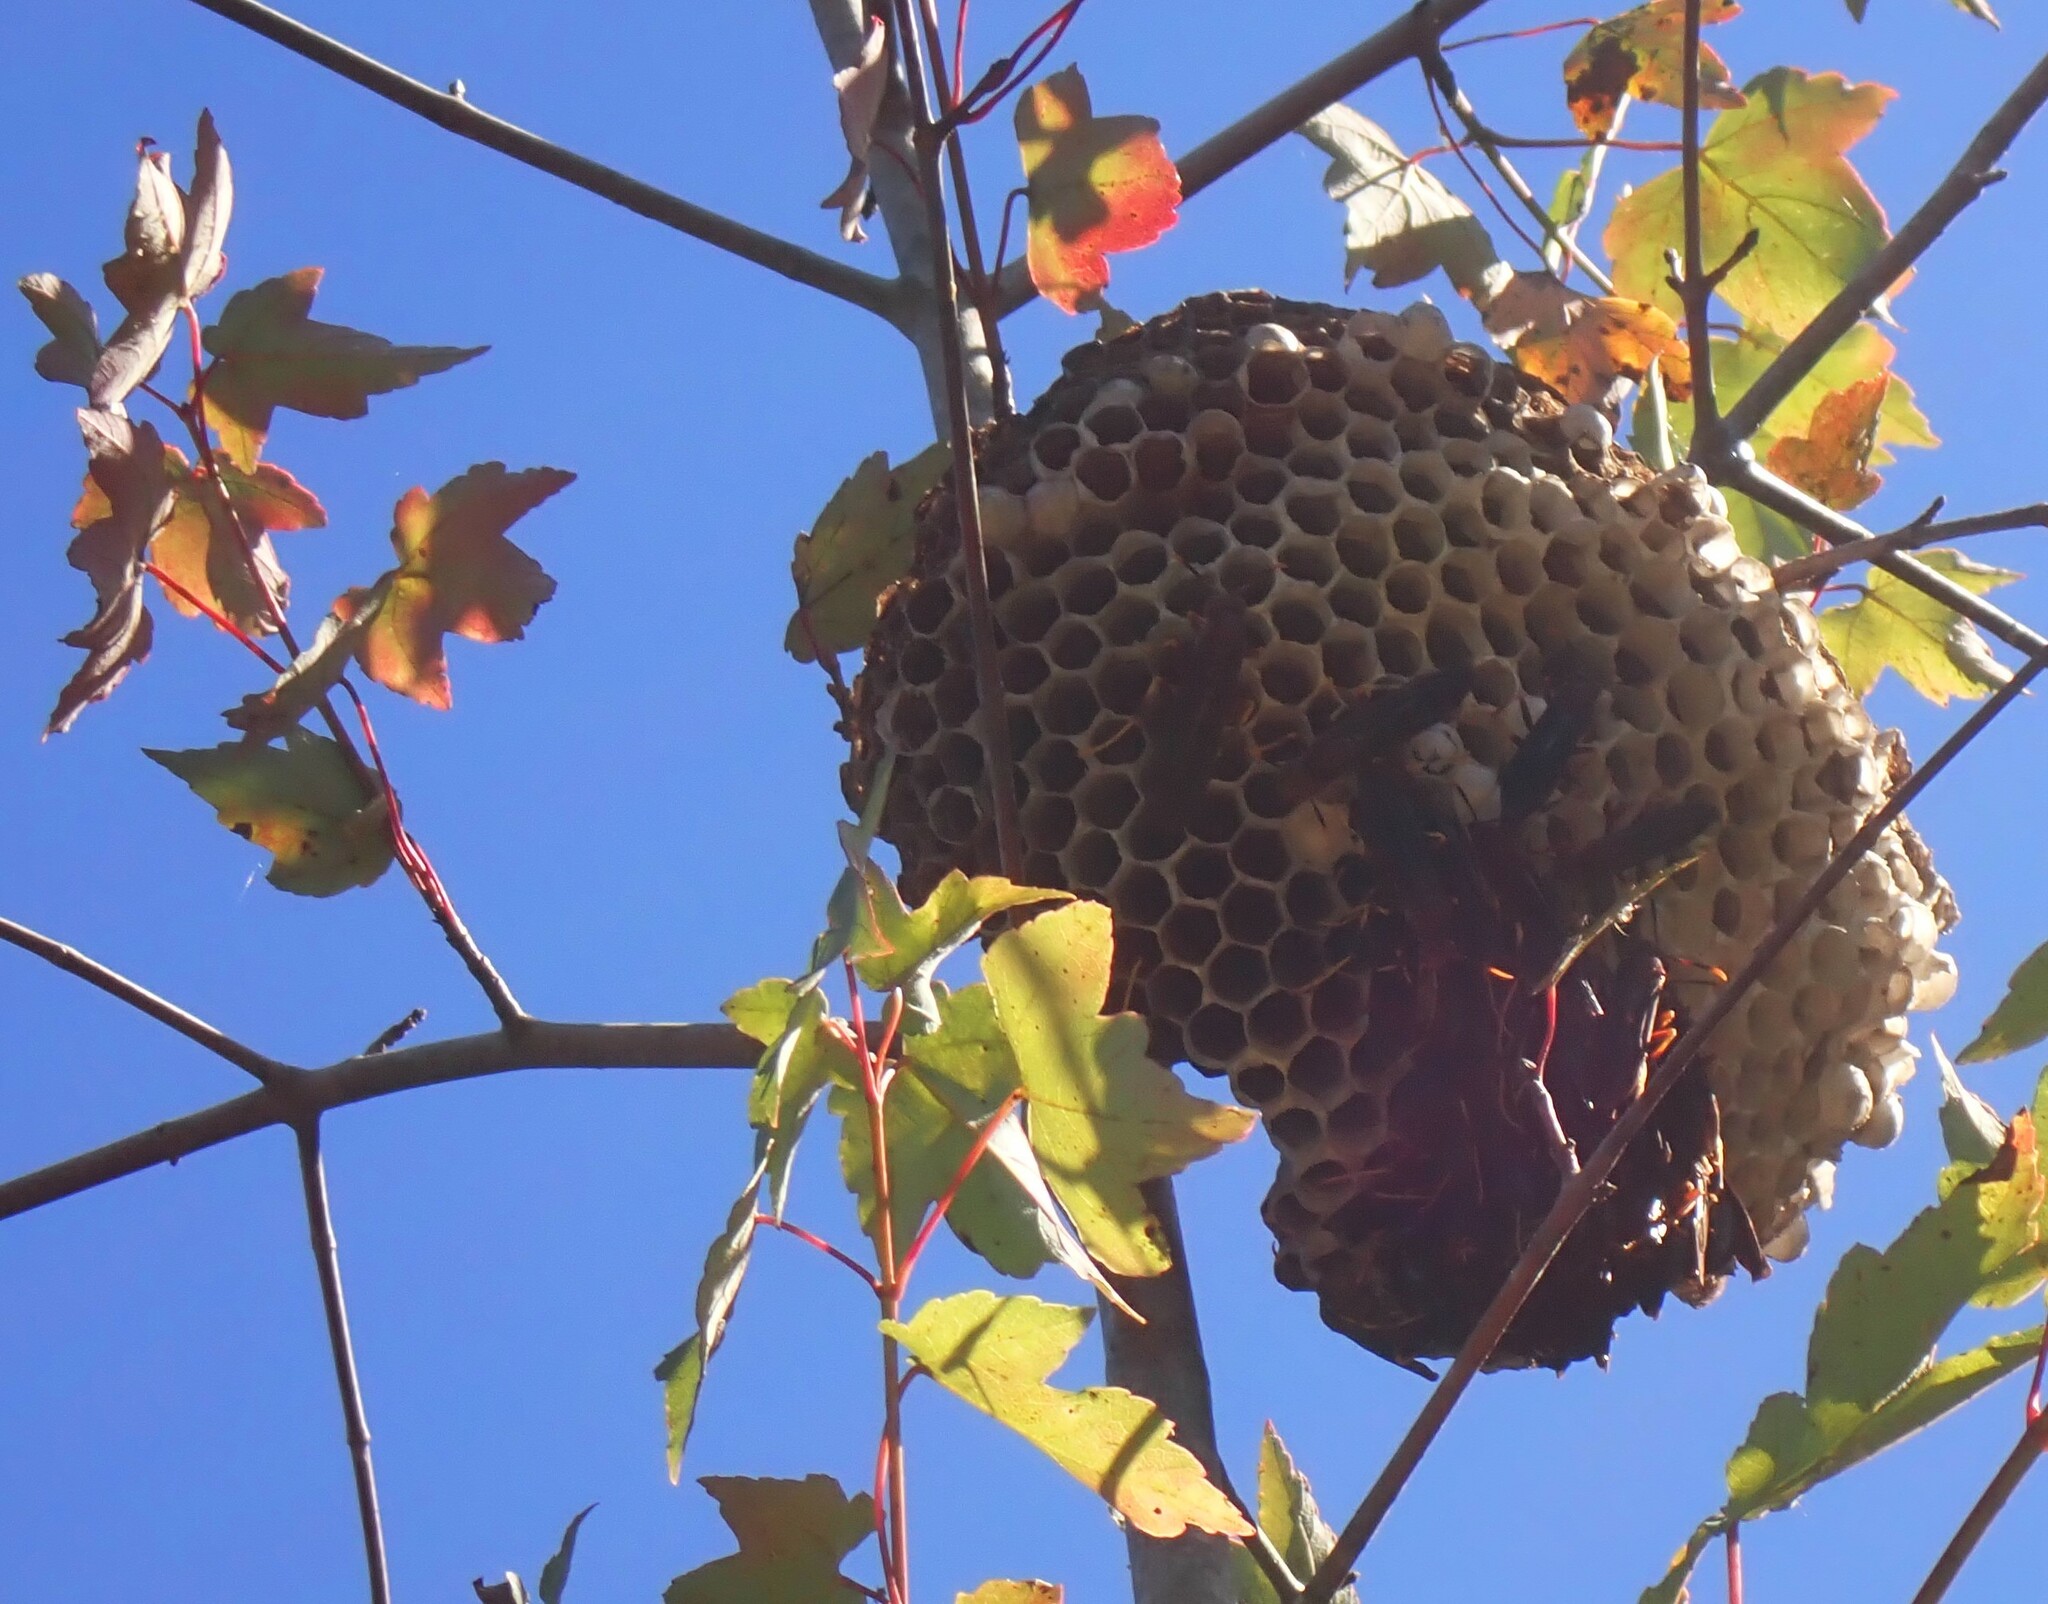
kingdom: Animalia
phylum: Arthropoda
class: Insecta
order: Hymenoptera
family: Eumenidae
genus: Polistes
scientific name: Polistes annularis
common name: Ringed paper wasp
